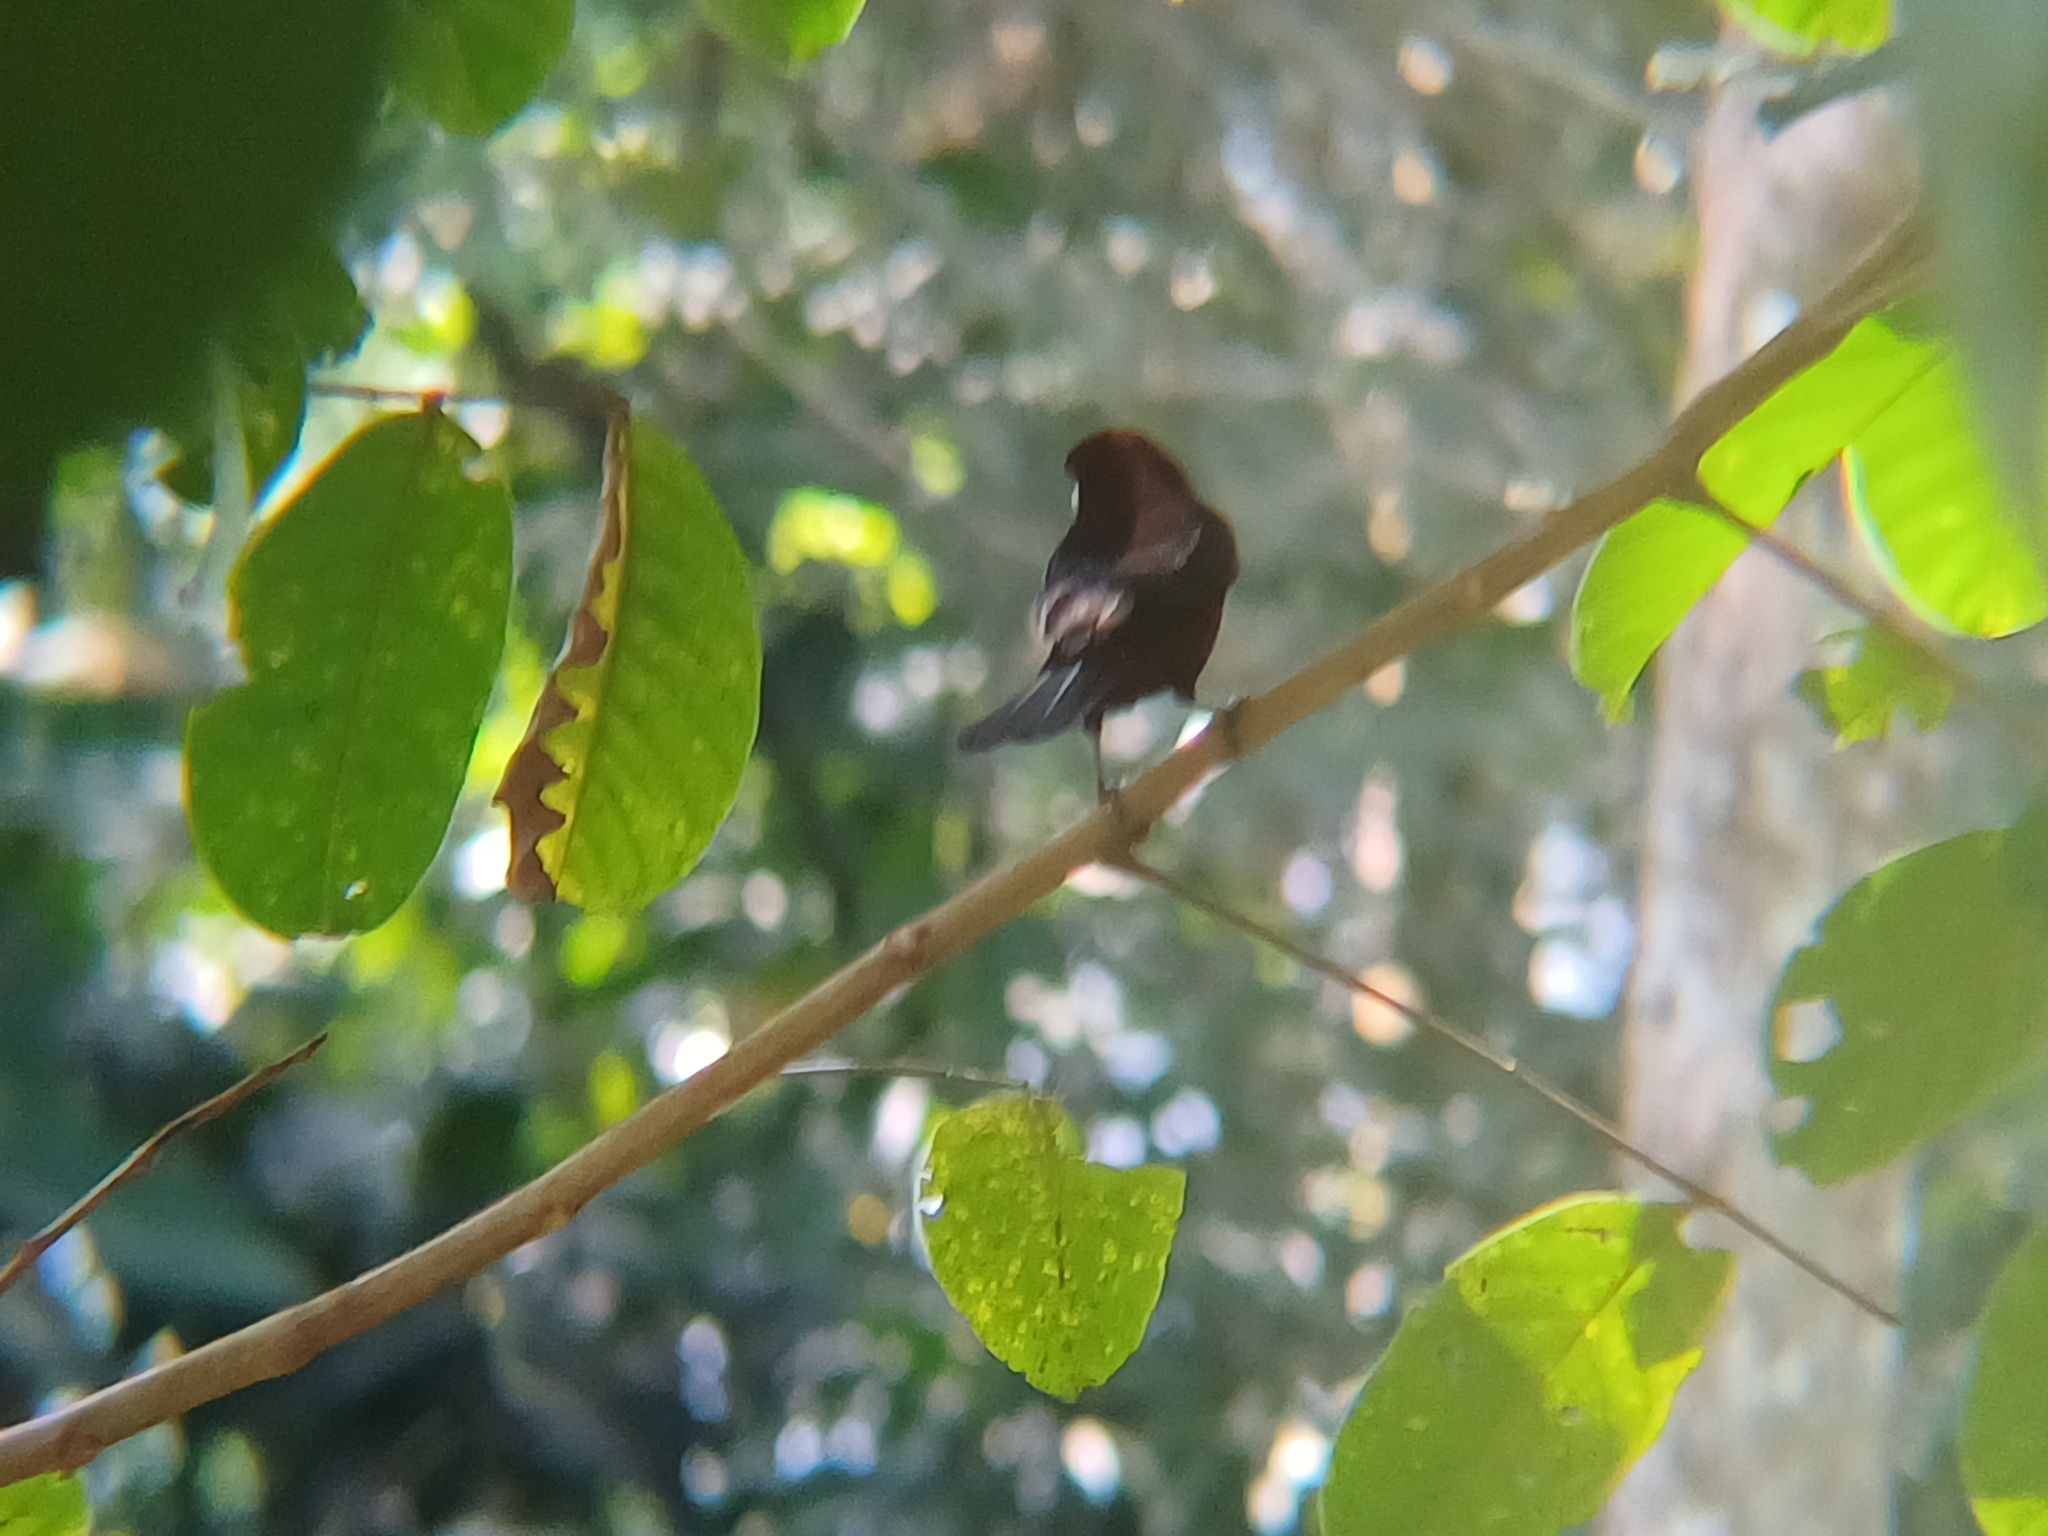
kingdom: Animalia
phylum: Chordata
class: Aves
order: Passeriformes
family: Thraupidae
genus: Ramphocelus
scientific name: Ramphocelus carbo
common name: Silver-beaked tanager
